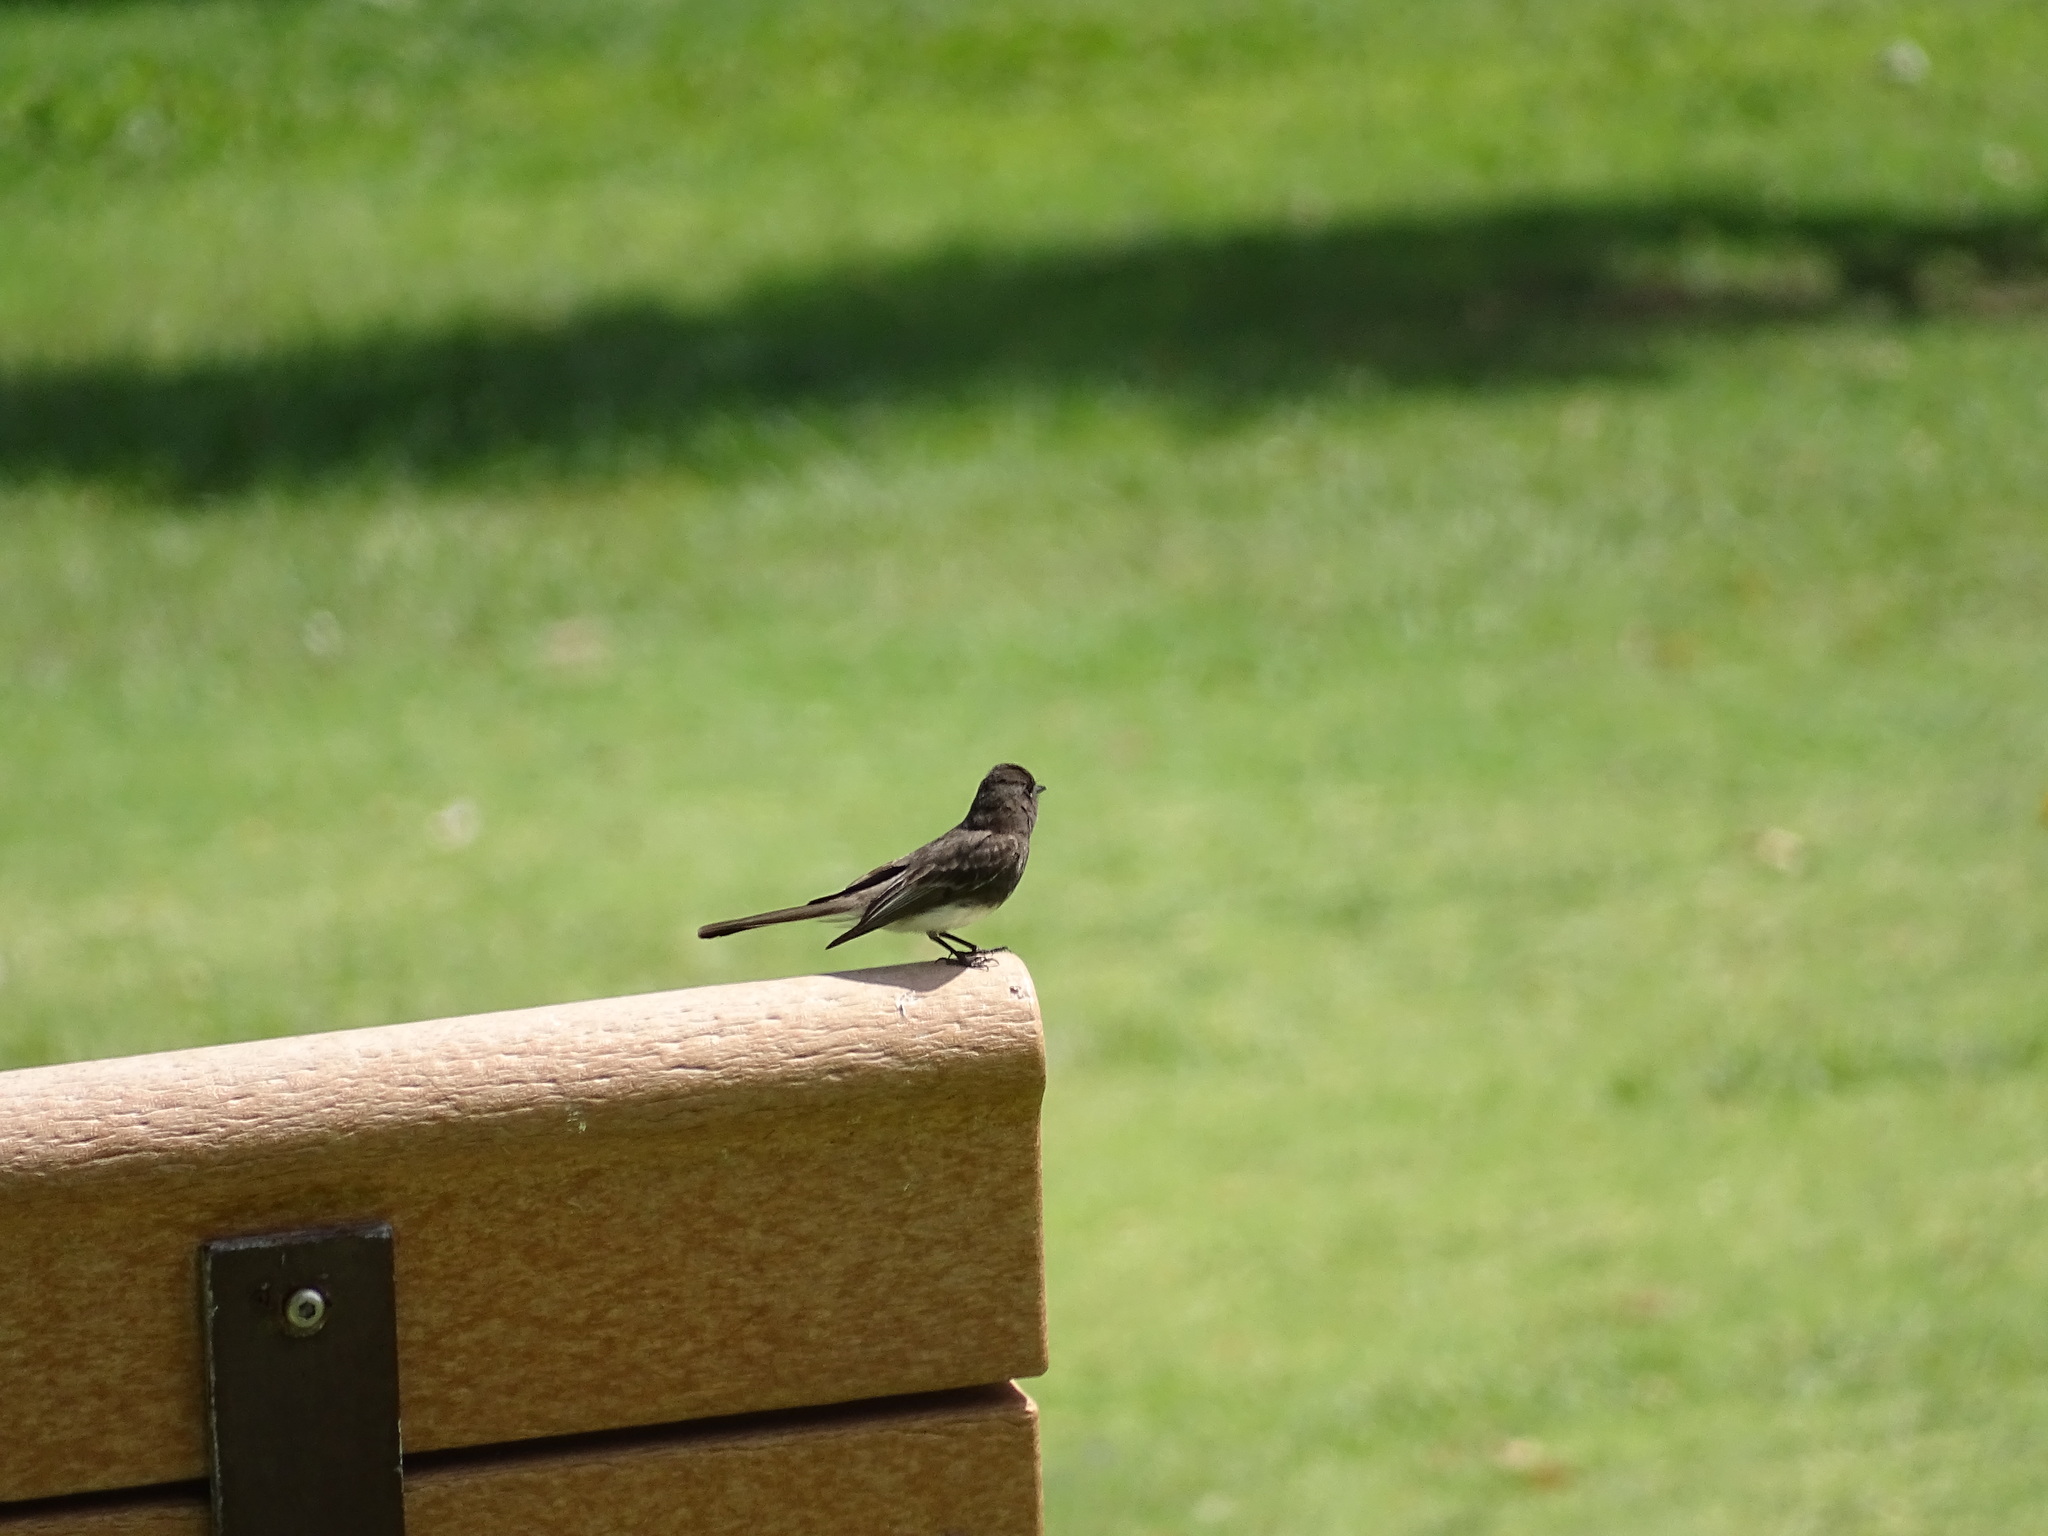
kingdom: Animalia
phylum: Chordata
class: Aves
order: Passeriformes
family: Tyrannidae
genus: Sayornis
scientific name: Sayornis nigricans
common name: Black phoebe
